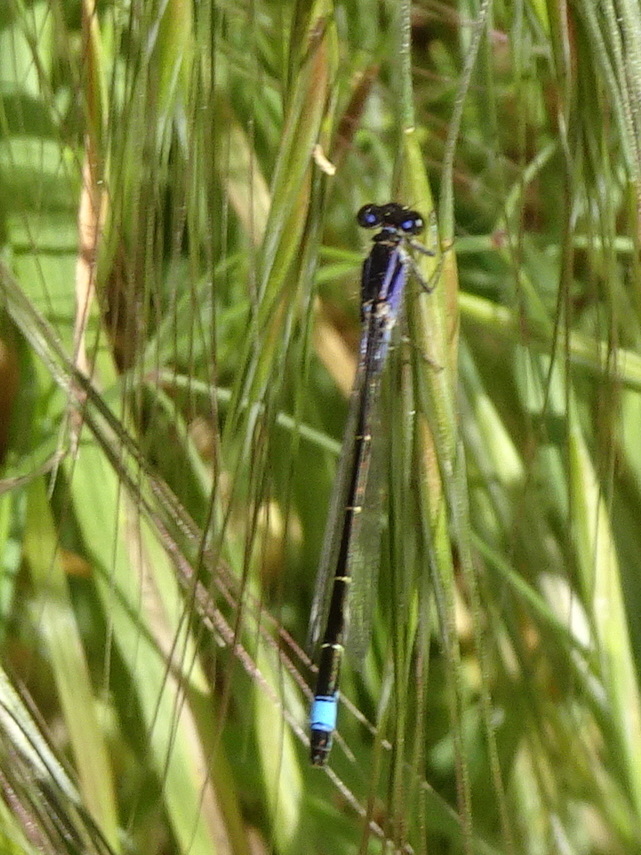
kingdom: Animalia
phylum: Arthropoda
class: Insecta
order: Odonata
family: Coenagrionidae
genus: Ischnura
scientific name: Ischnura elegans
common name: Blue-tailed damselfly
